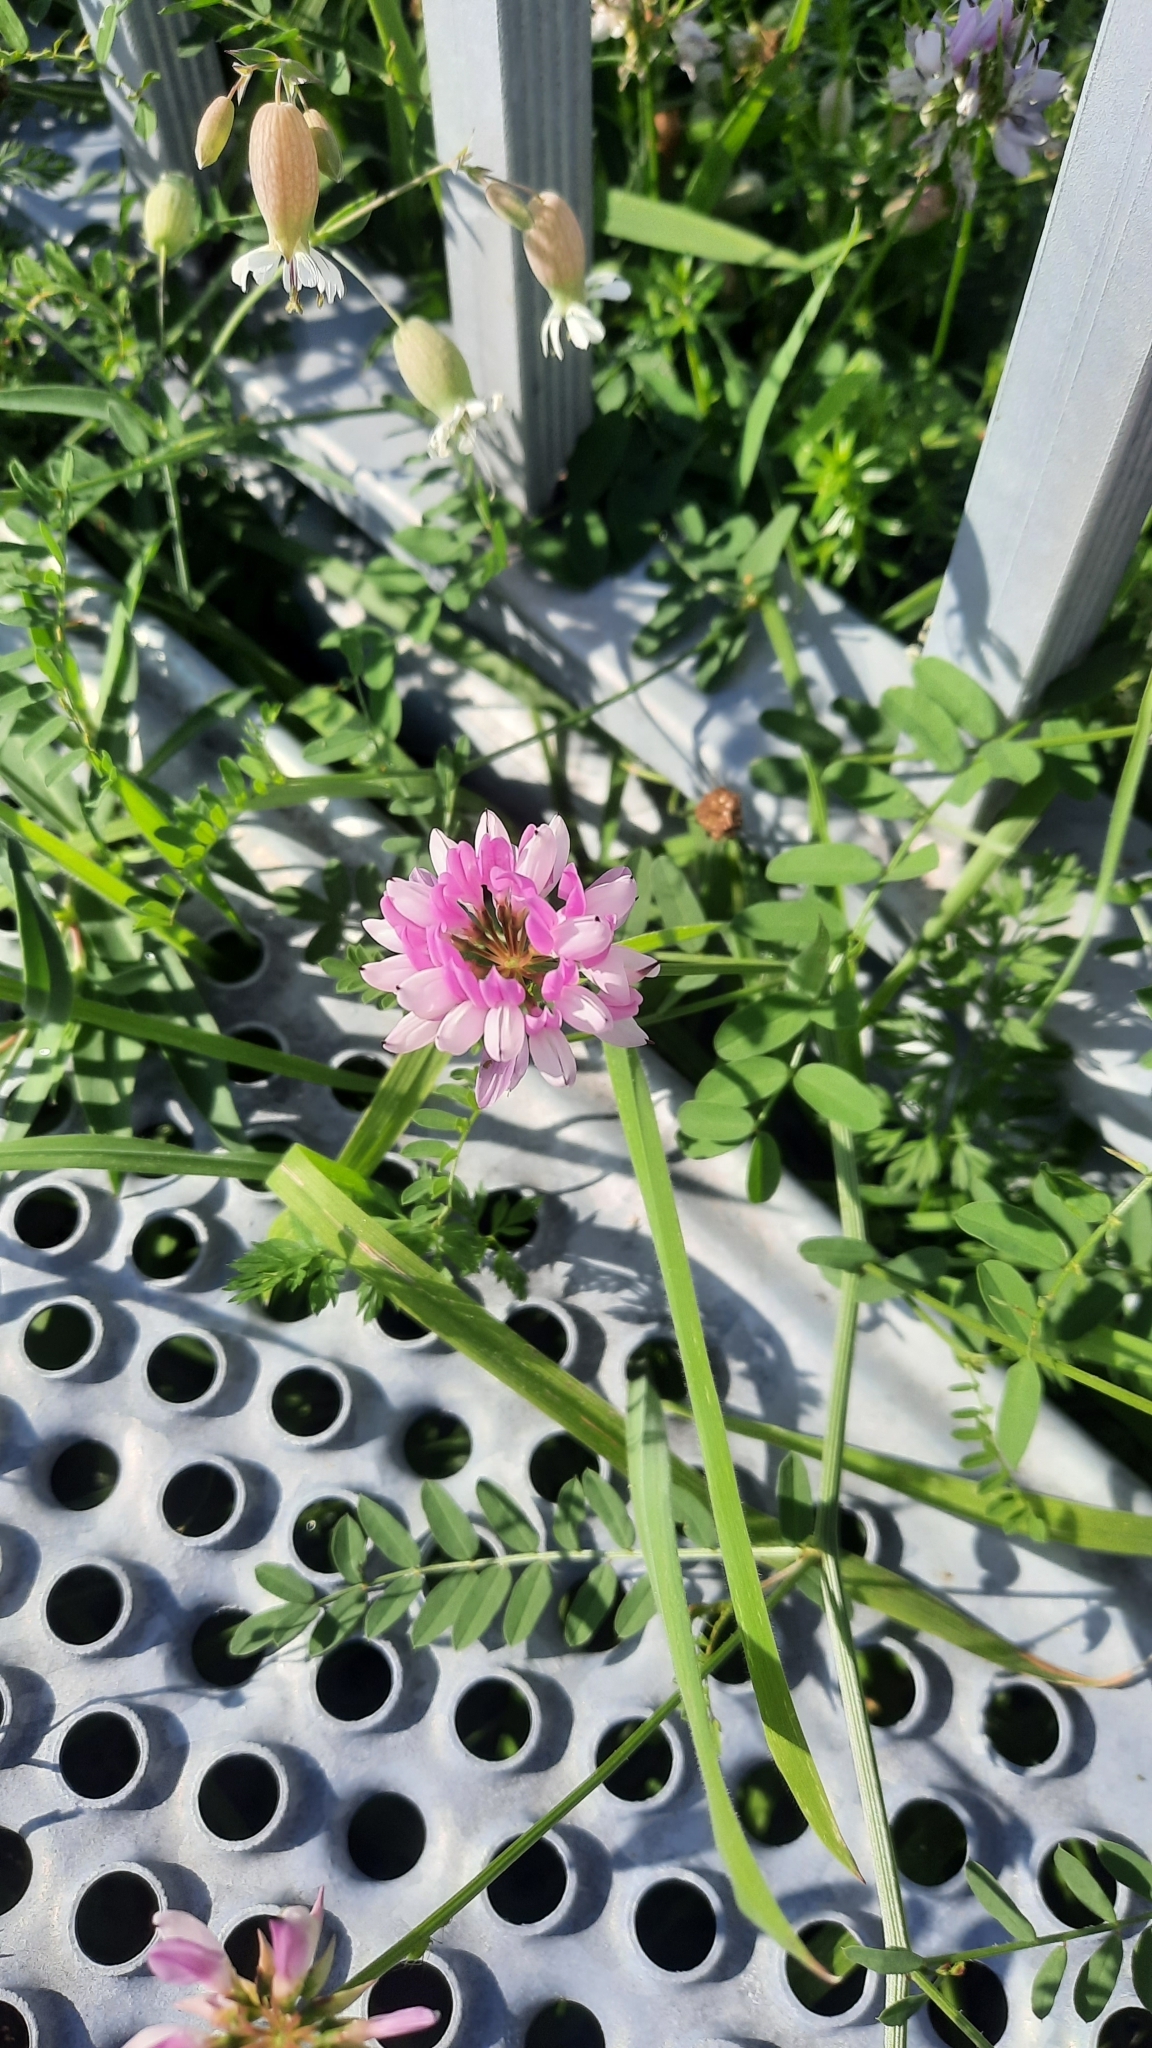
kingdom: Plantae
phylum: Tracheophyta
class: Magnoliopsida
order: Fabales
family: Fabaceae
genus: Coronilla
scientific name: Coronilla varia
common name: Crownvetch
